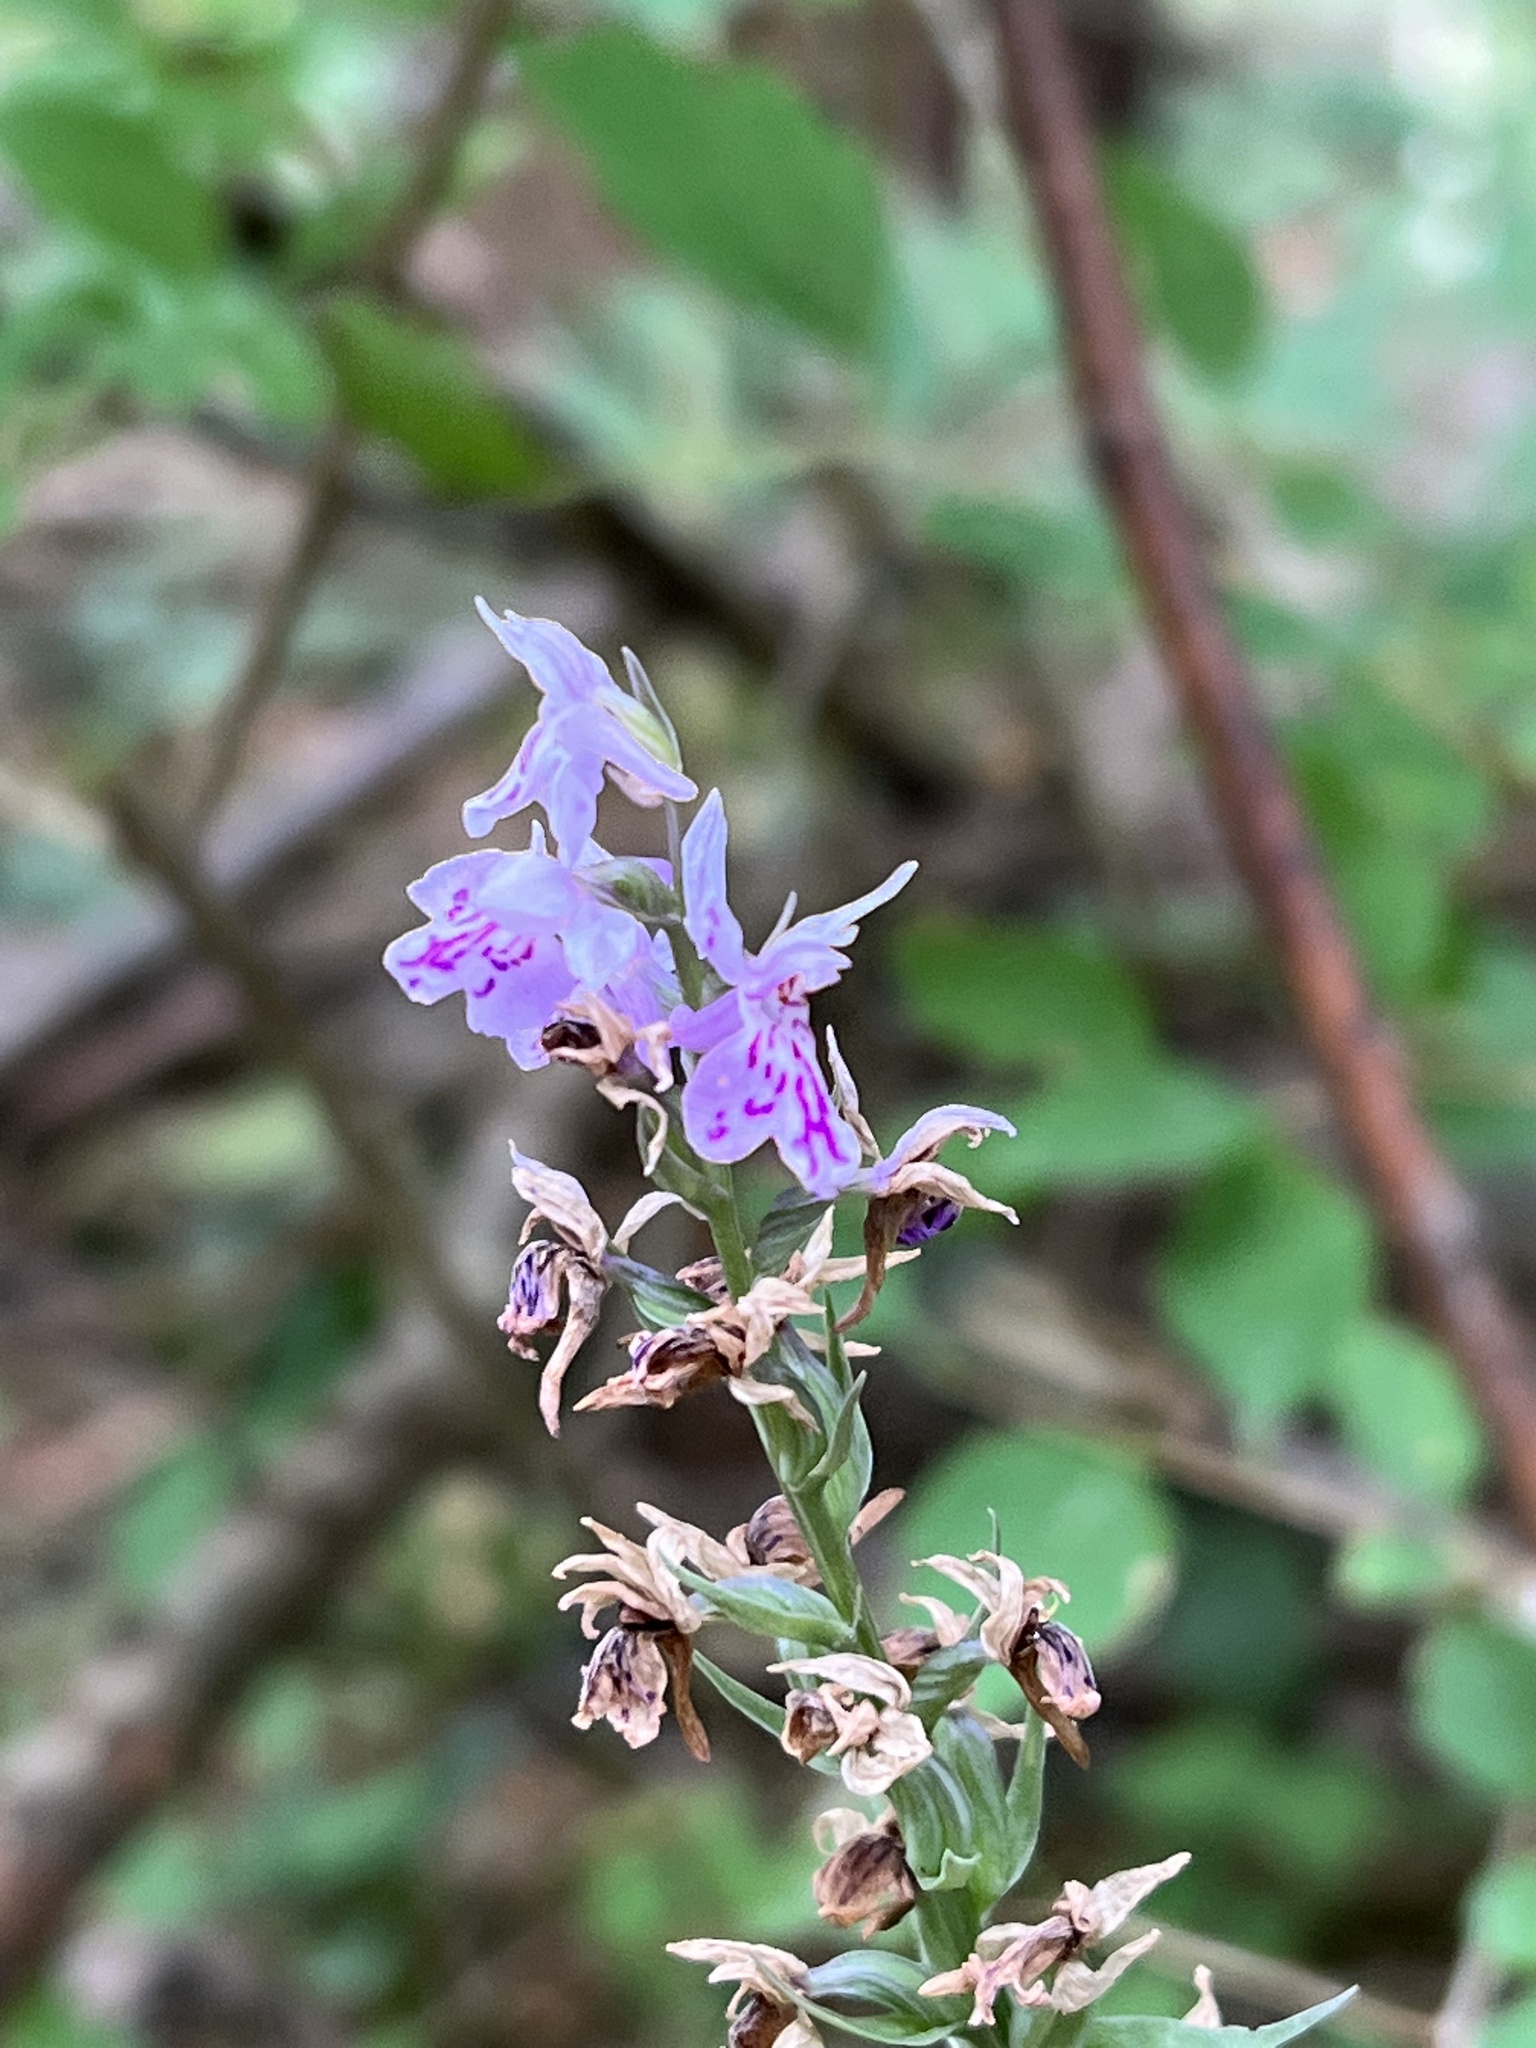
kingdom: Plantae
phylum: Tracheophyta
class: Liliopsida
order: Asparagales
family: Orchidaceae
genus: Dactylorhiza
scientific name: Dactylorhiza maculata
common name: Heath spotted-orchid
